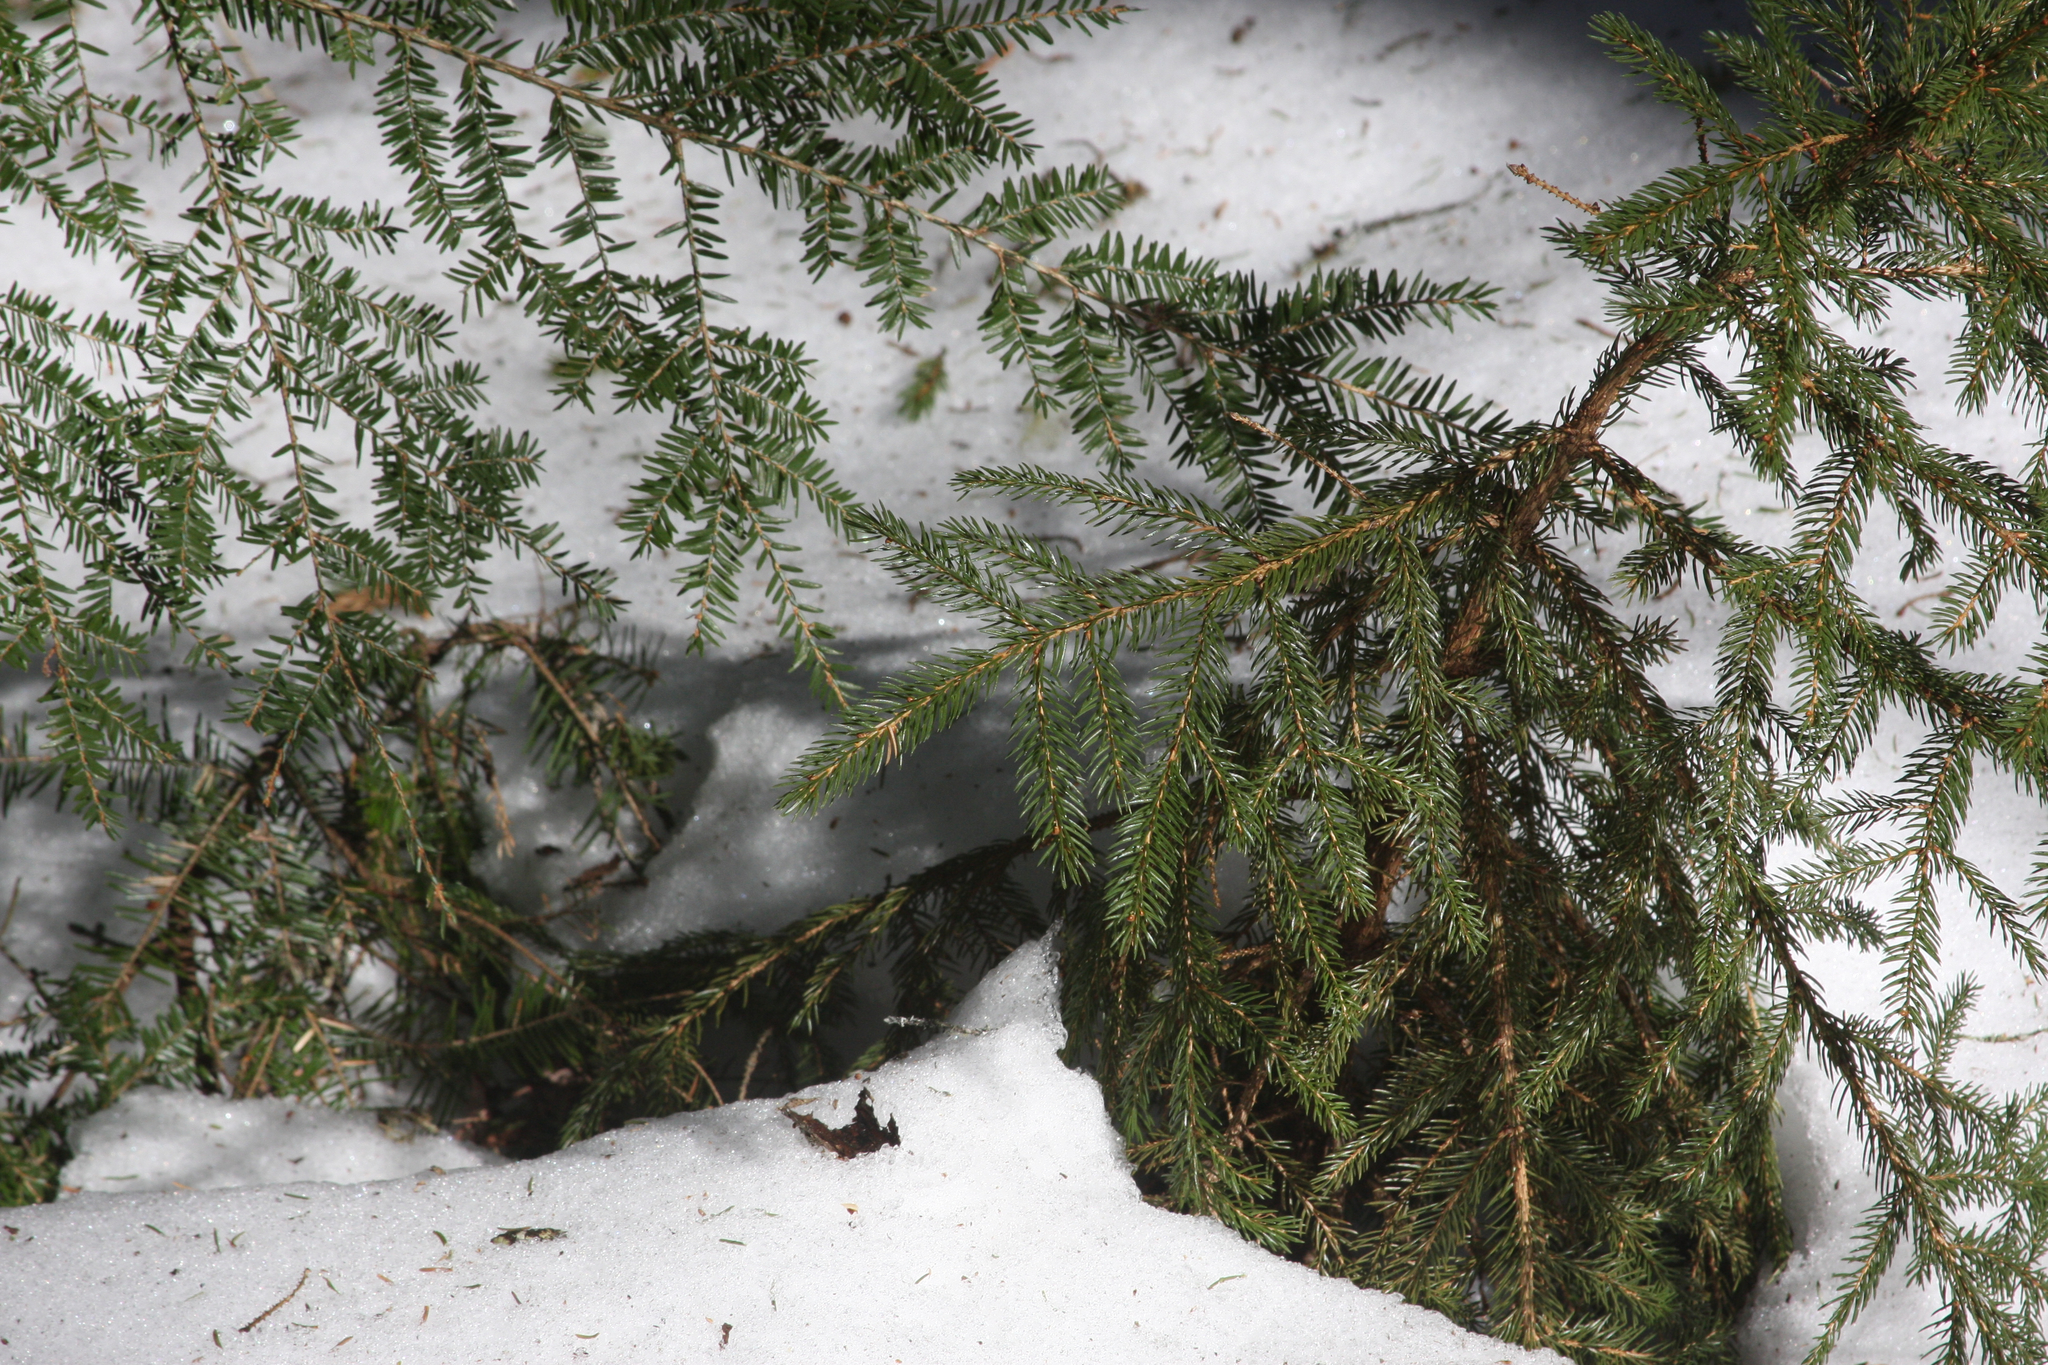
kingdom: Plantae
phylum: Tracheophyta
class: Pinopsida
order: Pinales
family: Pinaceae
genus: Picea
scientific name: Picea rubens
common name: Red spruce
